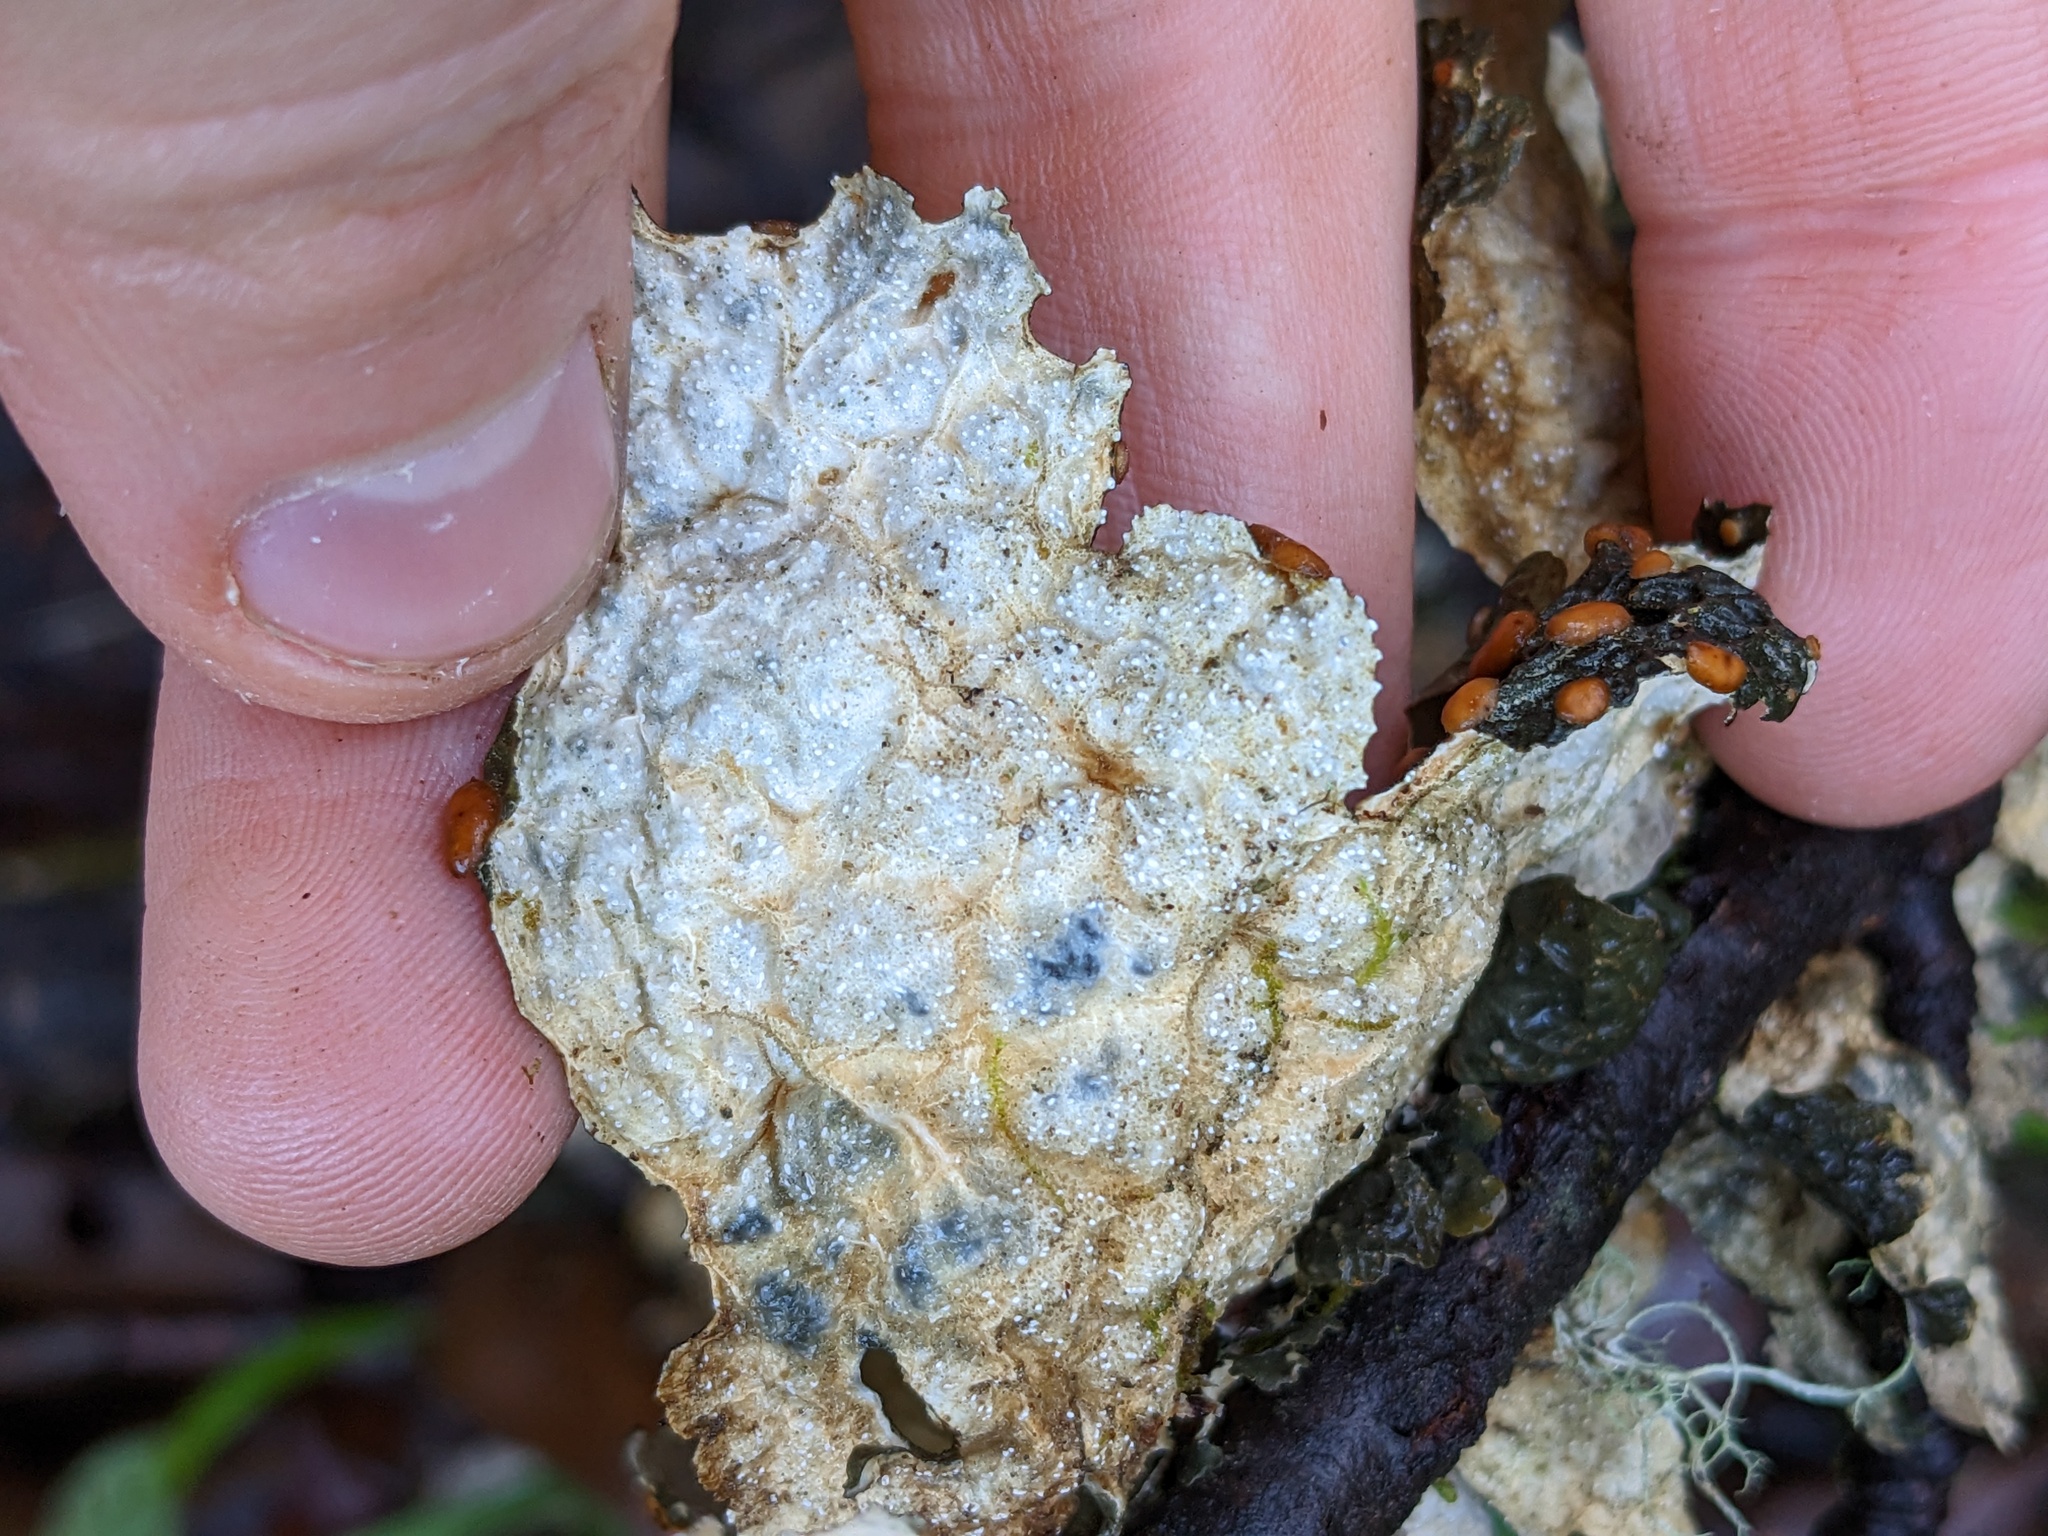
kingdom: Fungi
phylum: Ascomycota
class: Lecanoromycetes
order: Peltigerales
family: Lobariaceae
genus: Lobaria
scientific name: Lobaria anthraspis
